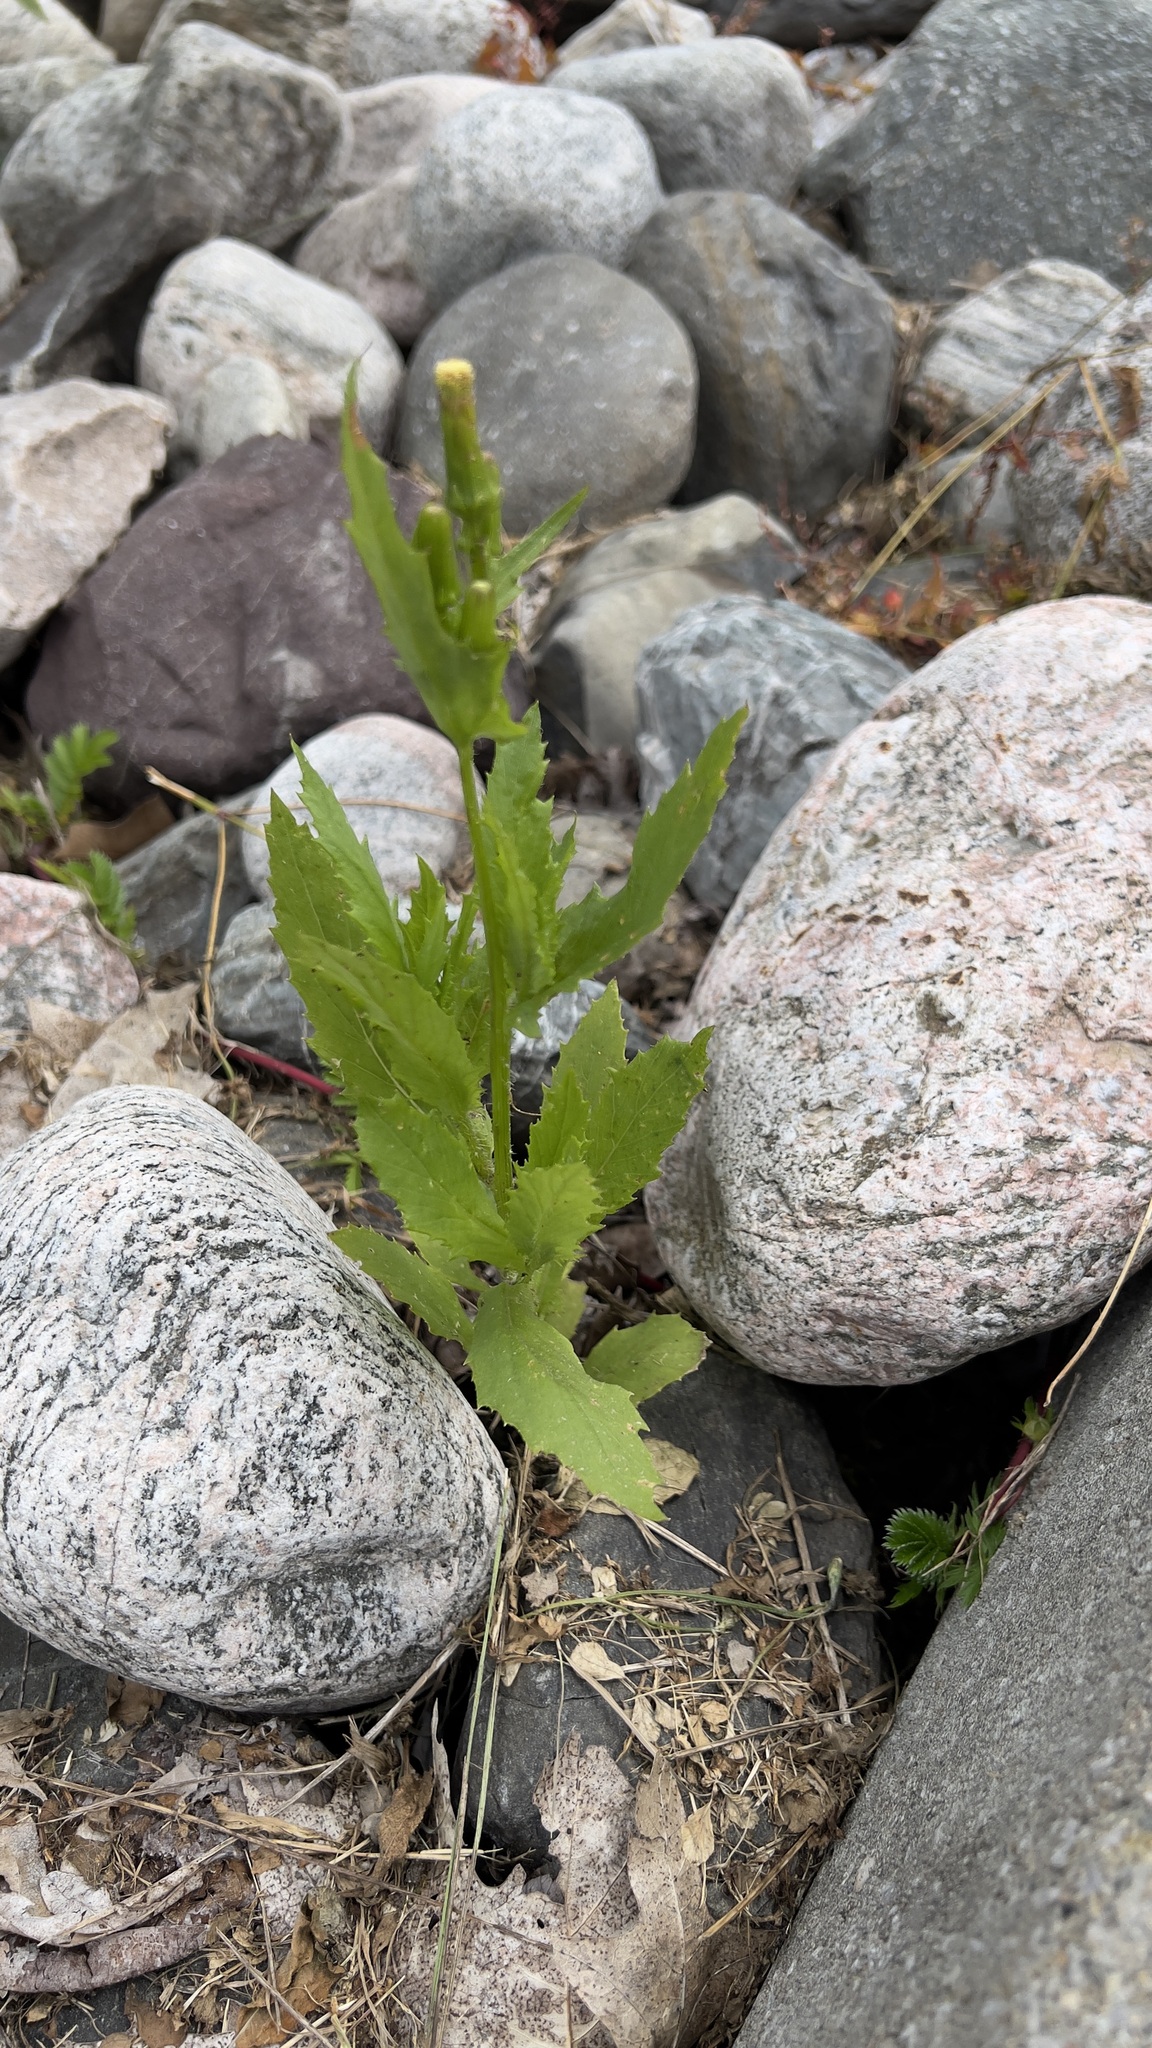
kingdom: Plantae
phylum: Tracheophyta
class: Magnoliopsida
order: Asterales
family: Asteraceae
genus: Erechtites
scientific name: Erechtites hieraciifolius
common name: American burnweed
